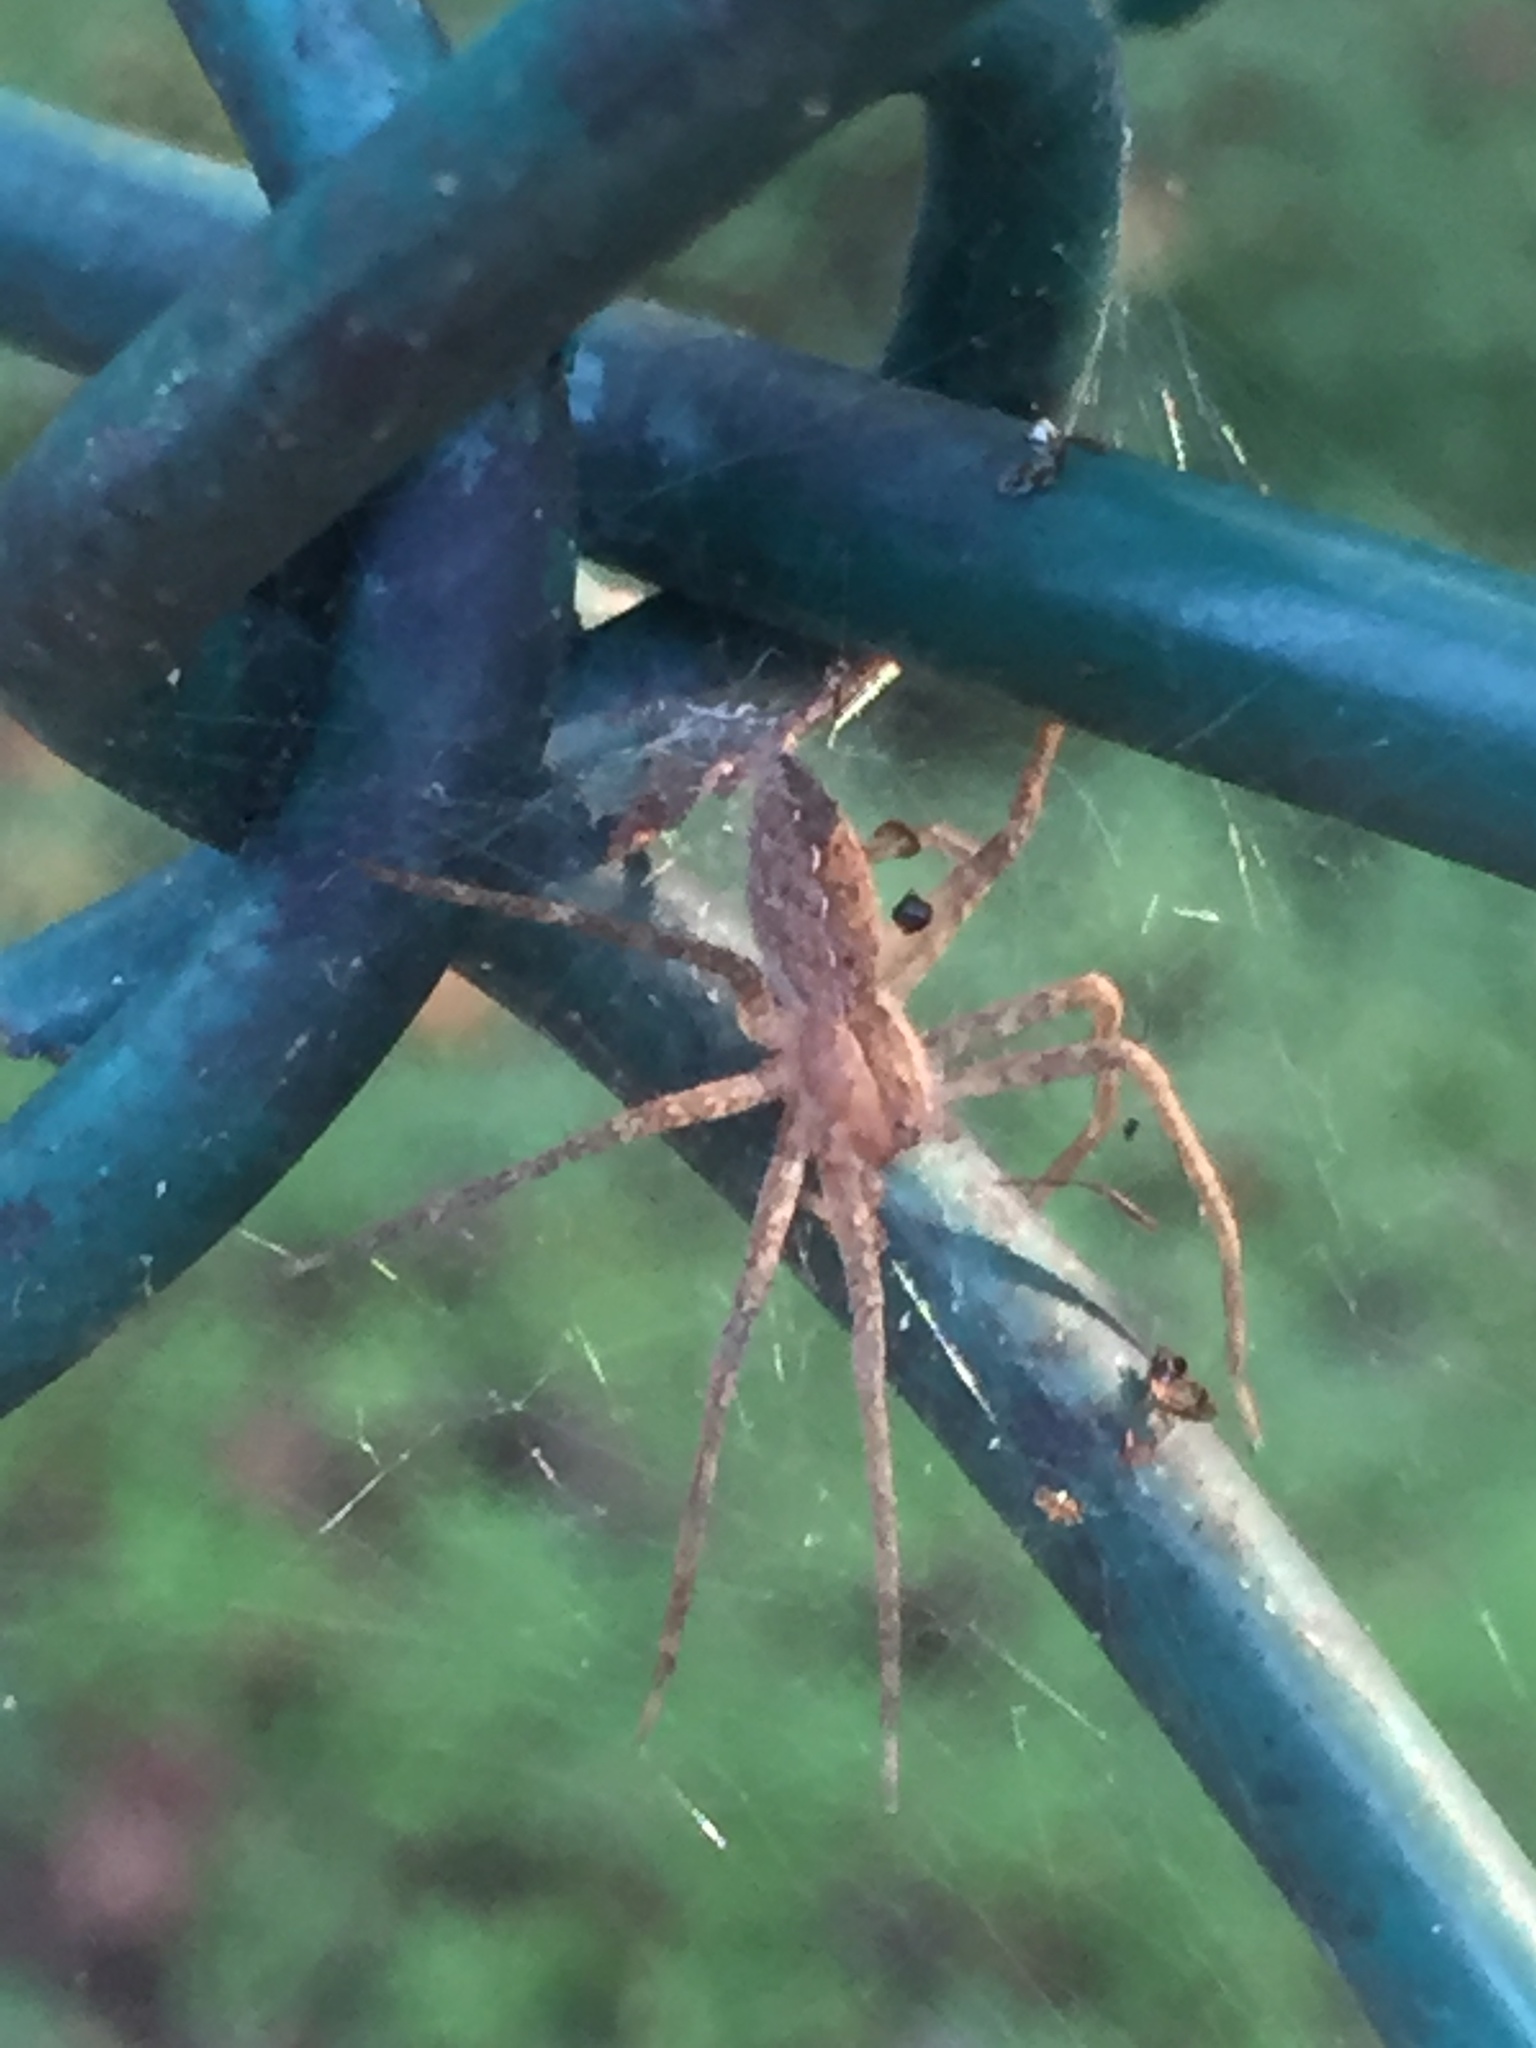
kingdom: Animalia
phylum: Arthropoda
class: Arachnida
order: Araneae
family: Pisauridae
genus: Pisaurina
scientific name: Pisaurina mira
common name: American nursery web spider
